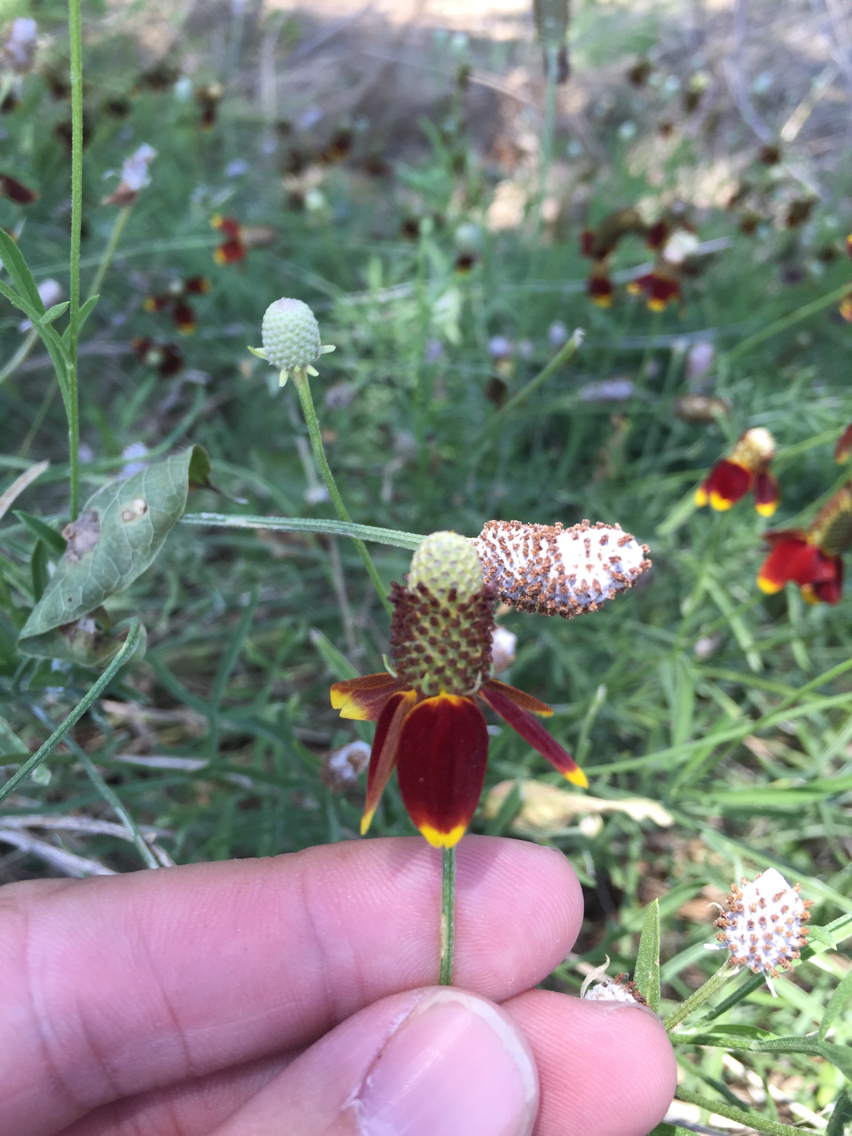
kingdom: Plantae
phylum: Tracheophyta
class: Magnoliopsida
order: Asterales
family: Asteraceae
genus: Ratibida
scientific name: Ratibida columnifera
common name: Prairie coneflower
